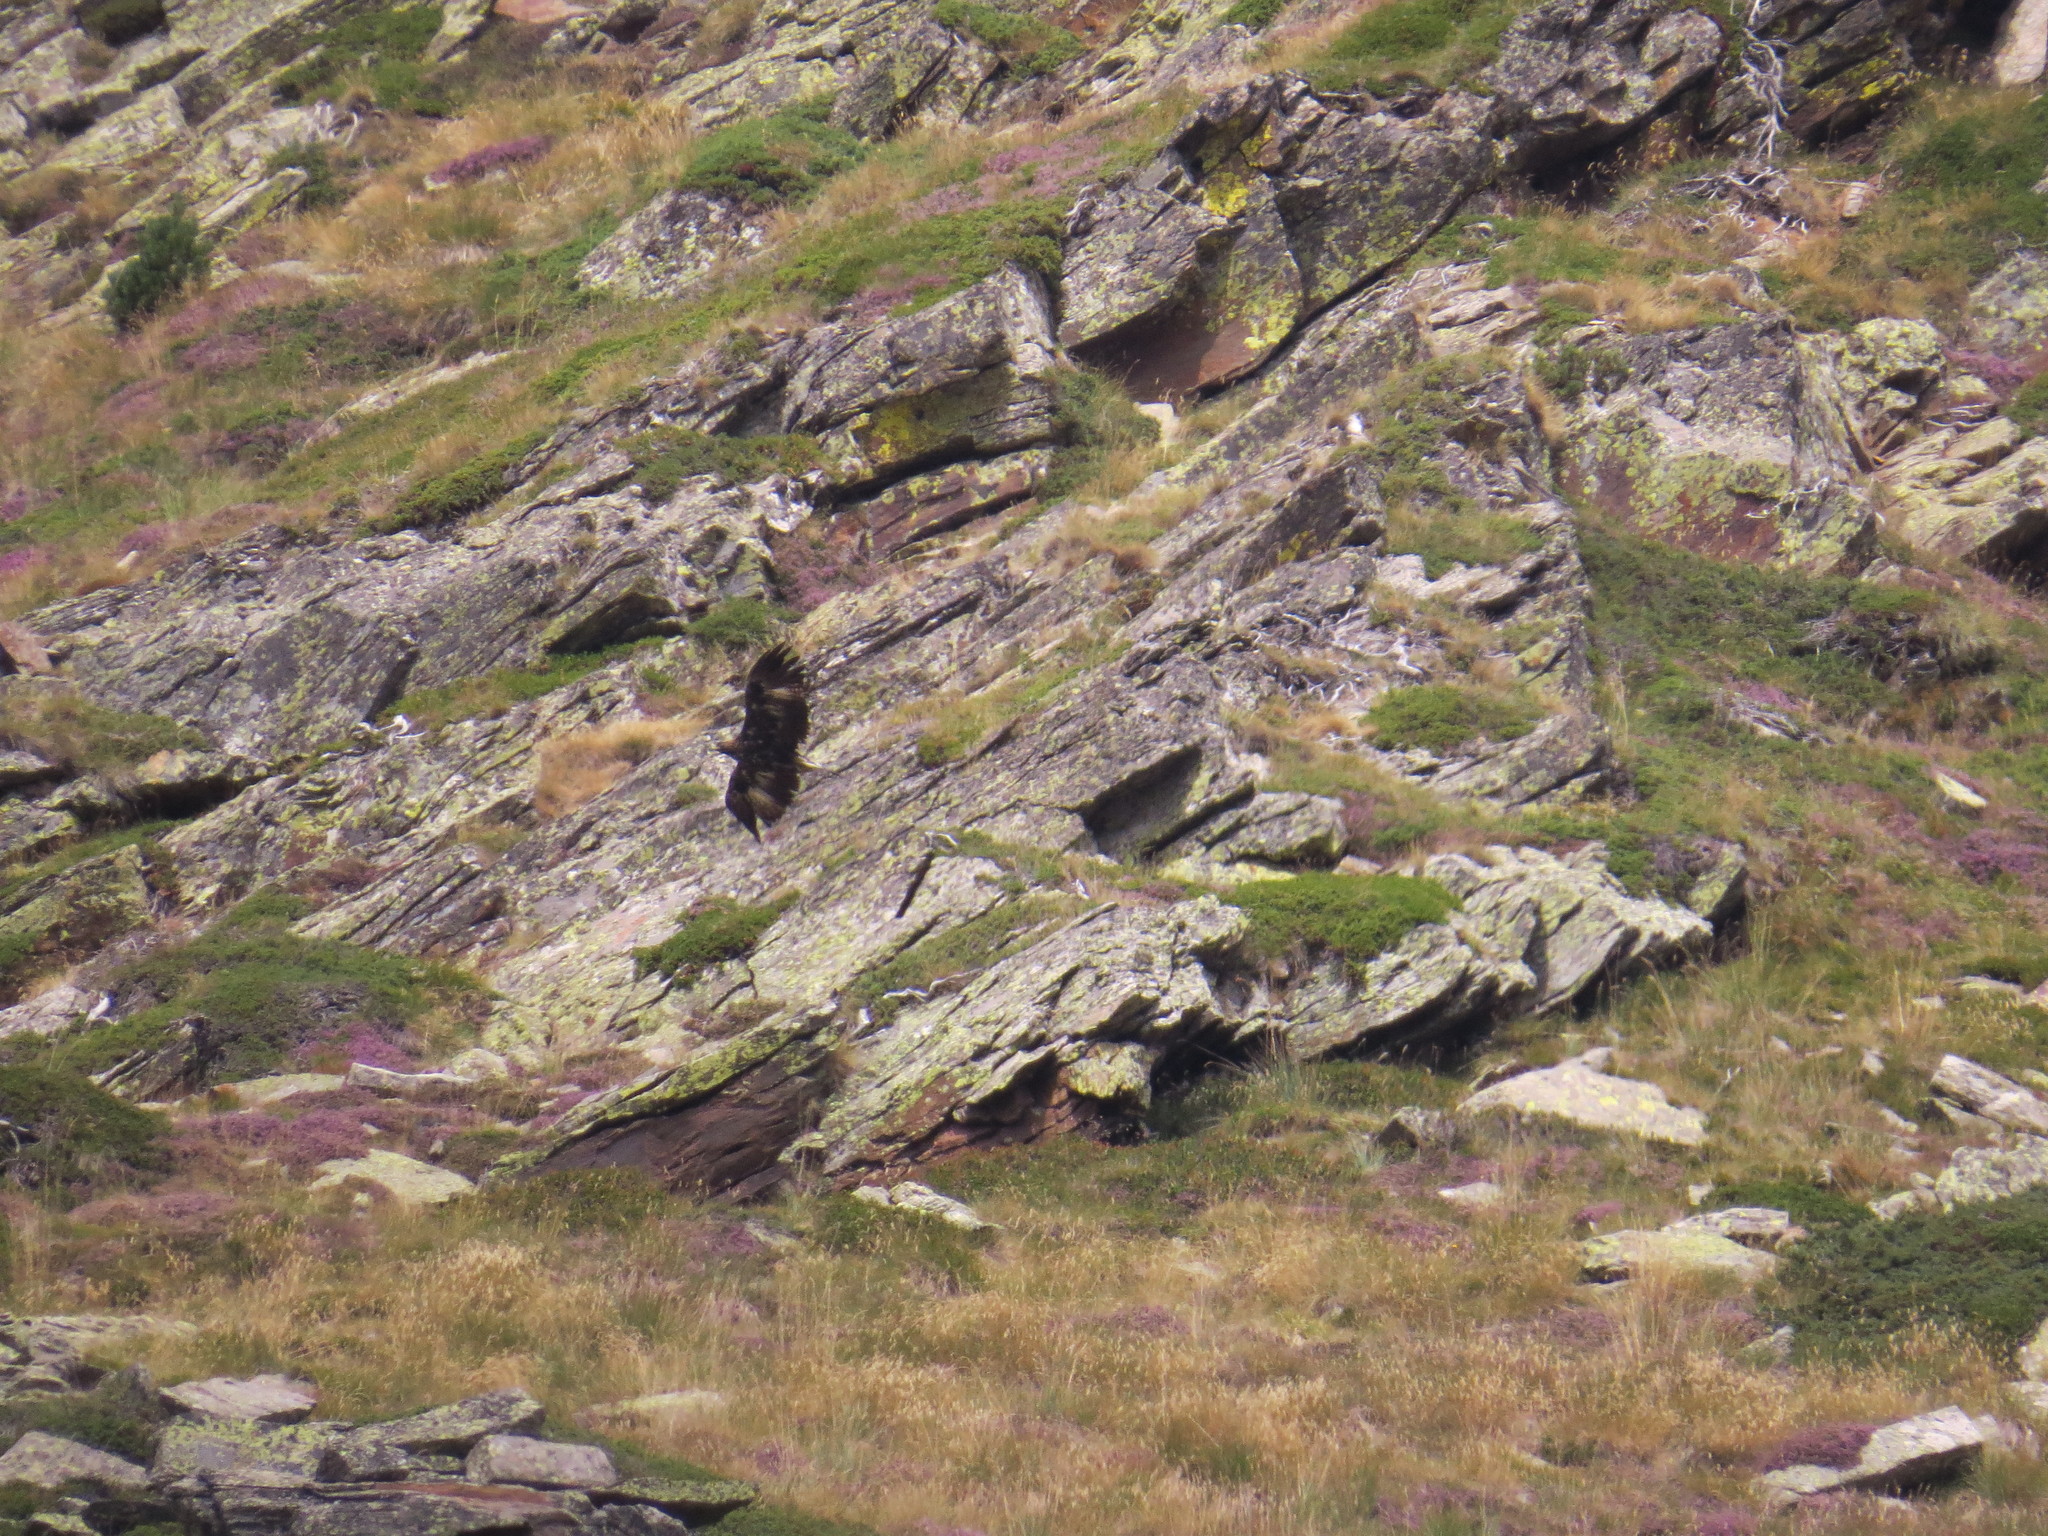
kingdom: Animalia
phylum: Chordata
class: Aves
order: Accipitriformes
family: Accipitridae
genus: Aquila
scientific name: Aquila chrysaetos
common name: Golden eagle
